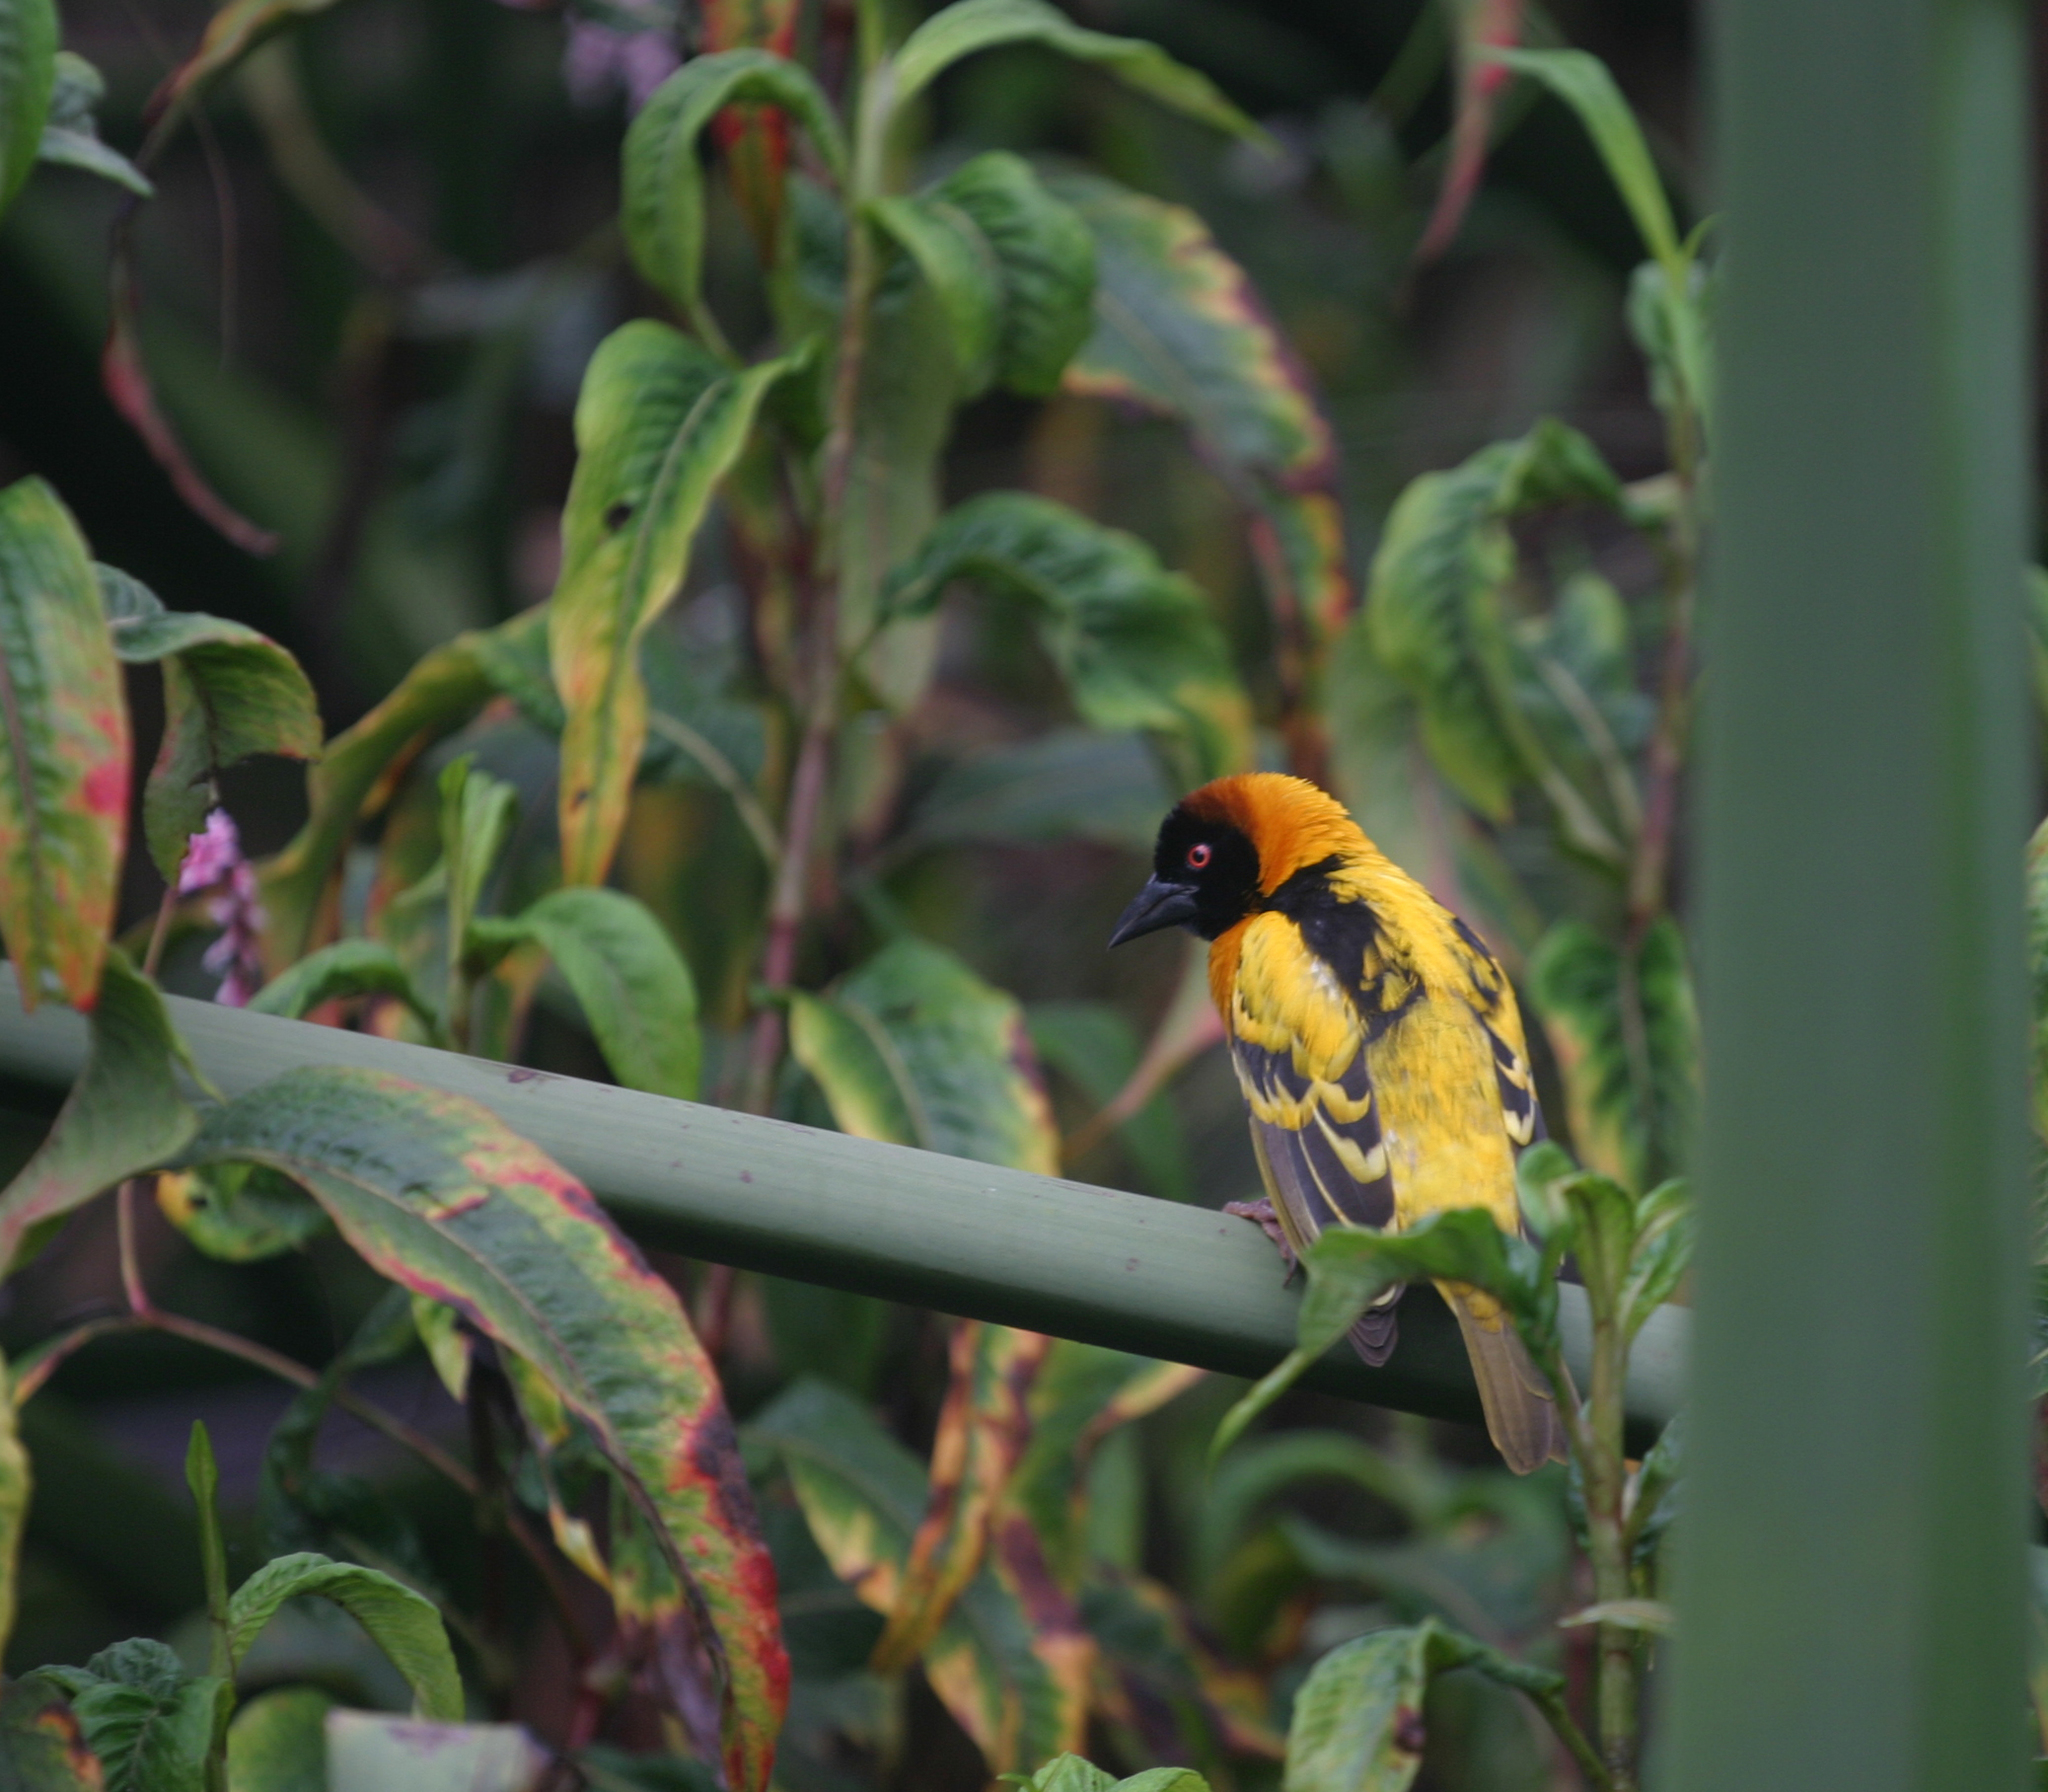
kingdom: Animalia
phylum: Chordata
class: Aves
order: Passeriformes
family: Ploceidae
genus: Ploceus
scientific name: Ploceus cucullatus
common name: Village weaver
